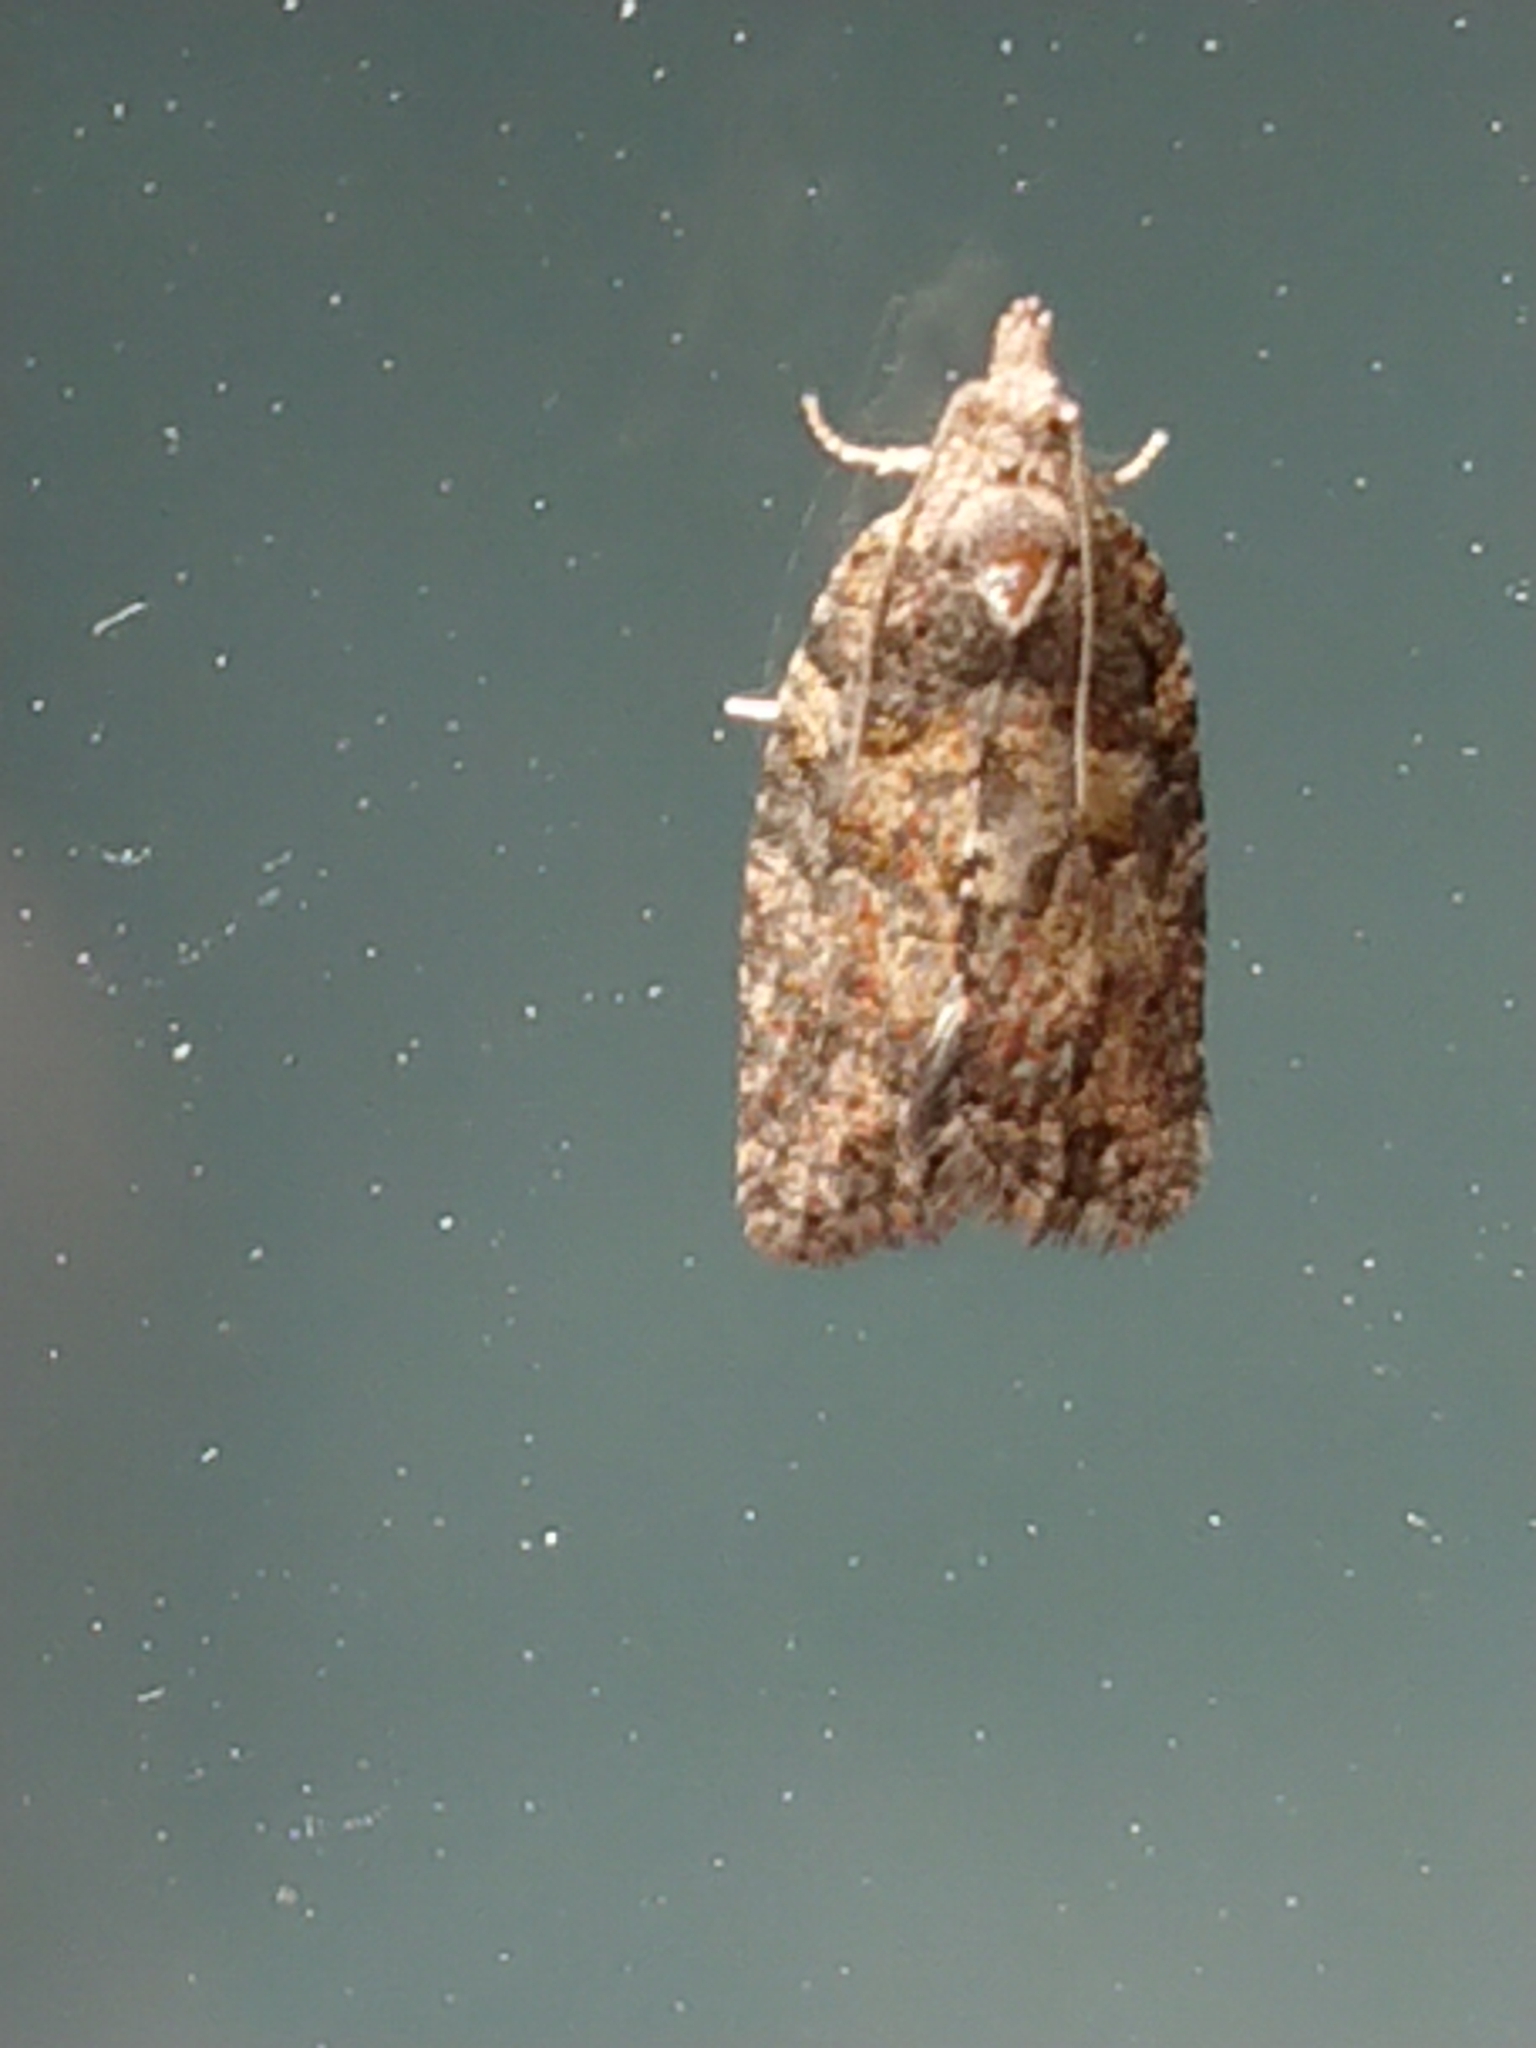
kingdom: Animalia
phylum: Arthropoda
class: Insecta
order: Lepidoptera
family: Tortricidae
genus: Capua
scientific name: Capua intractana
